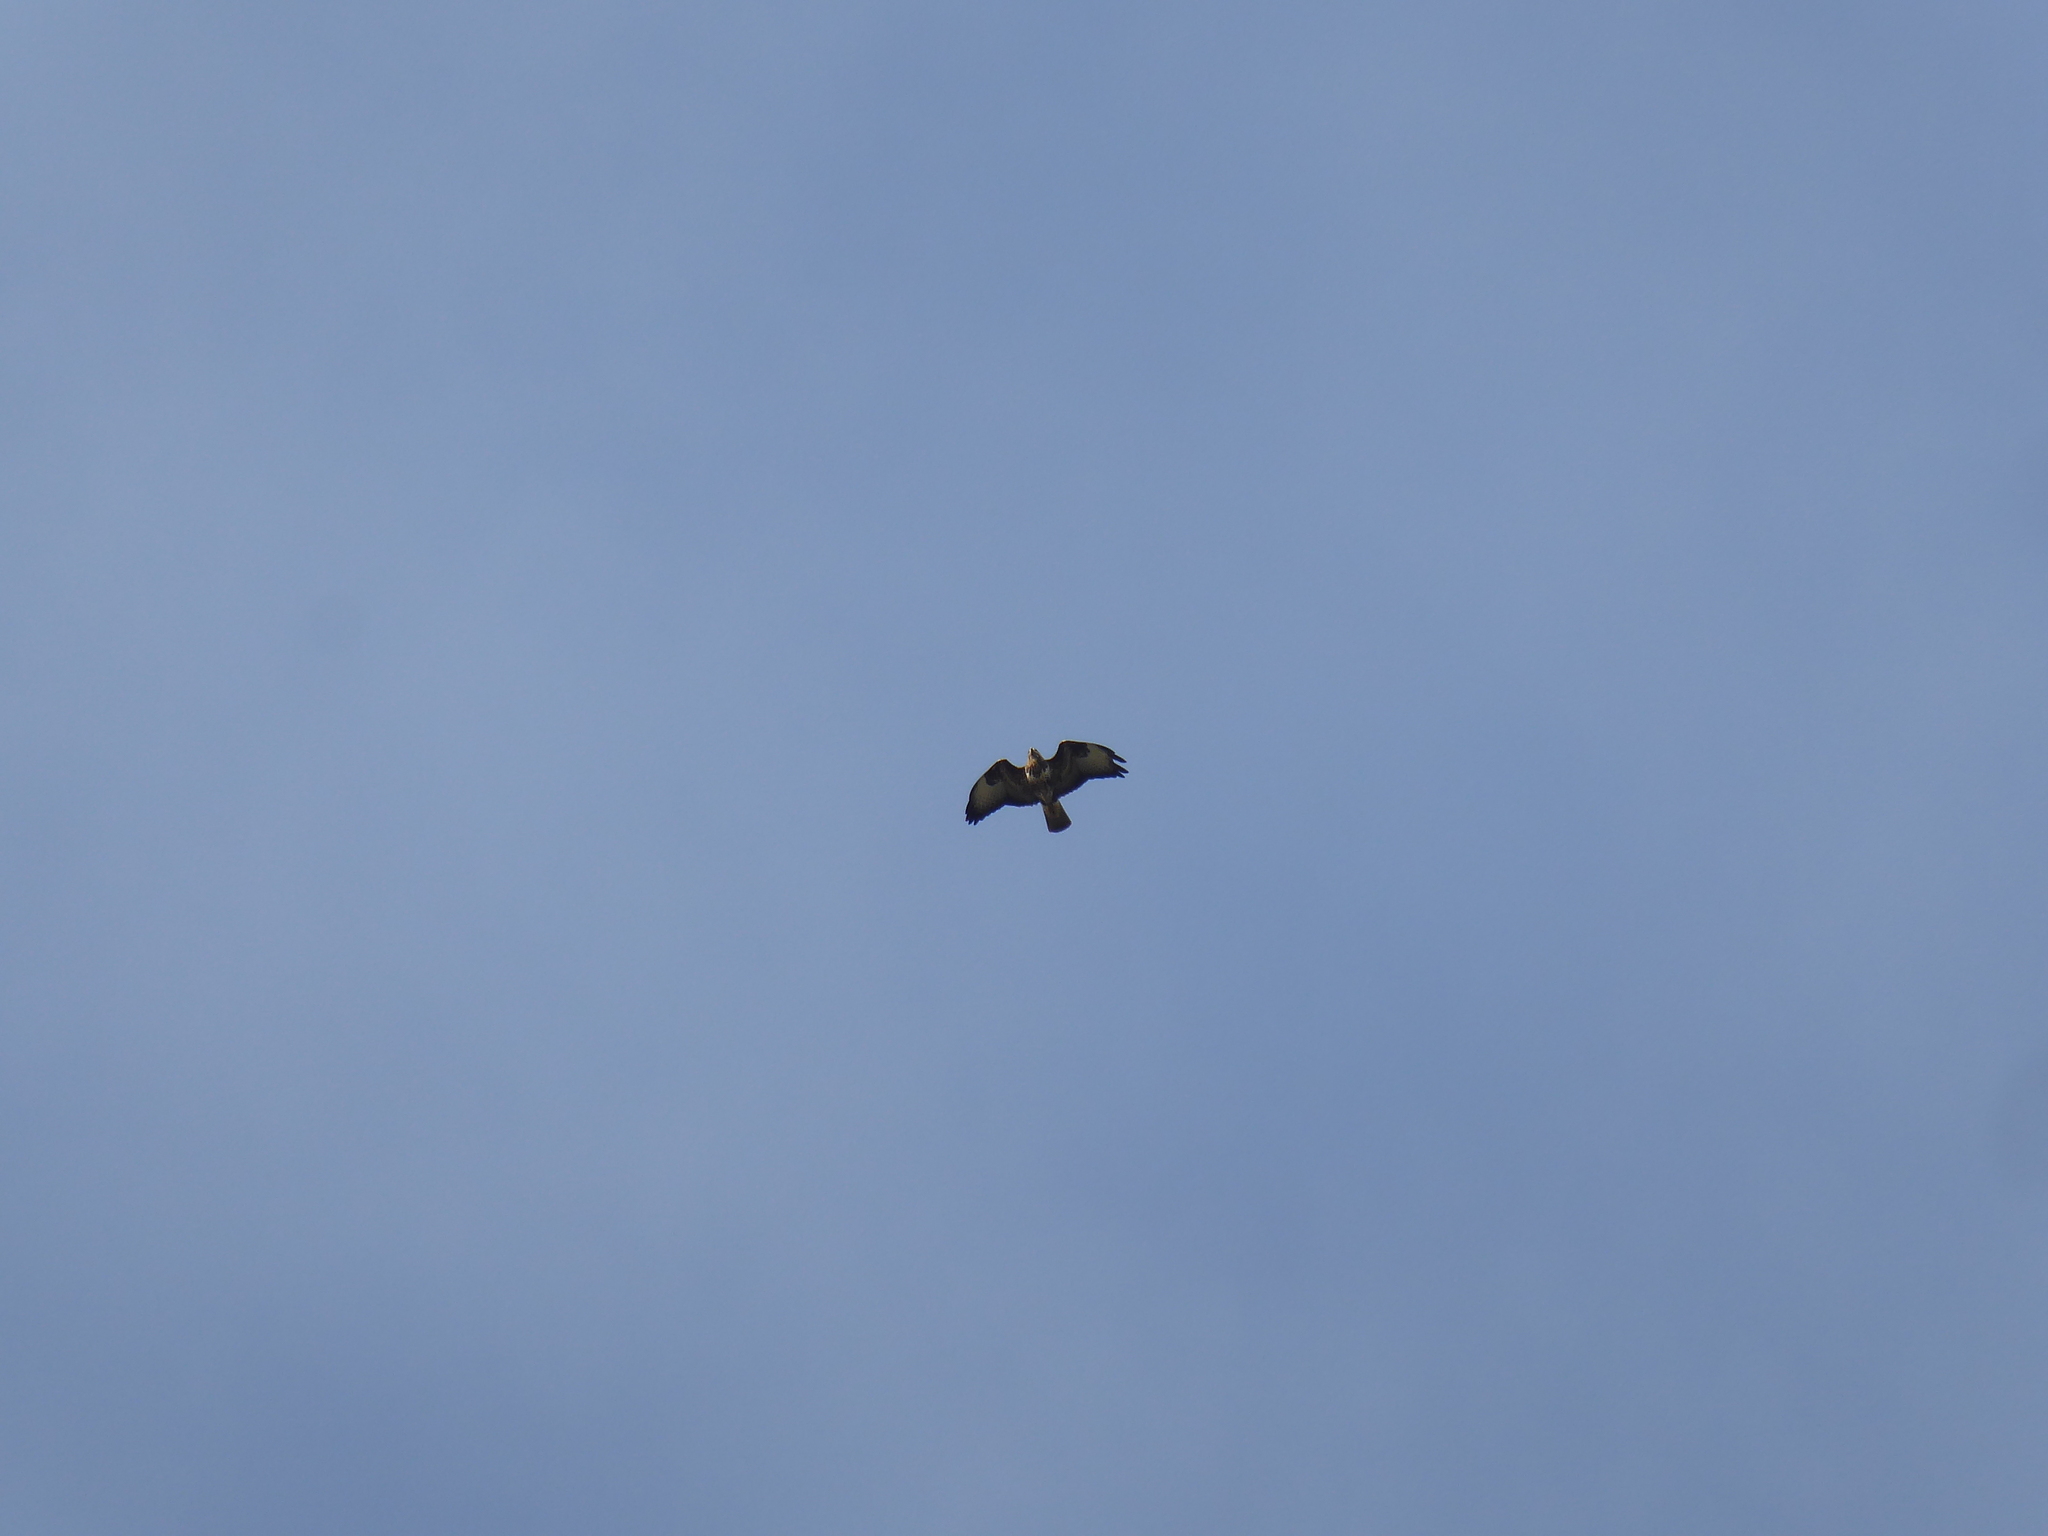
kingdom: Animalia
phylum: Chordata
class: Aves
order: Accipitriformes
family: Accipitridae
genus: Buteo
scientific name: Buteo buteo
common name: Common buzzard
